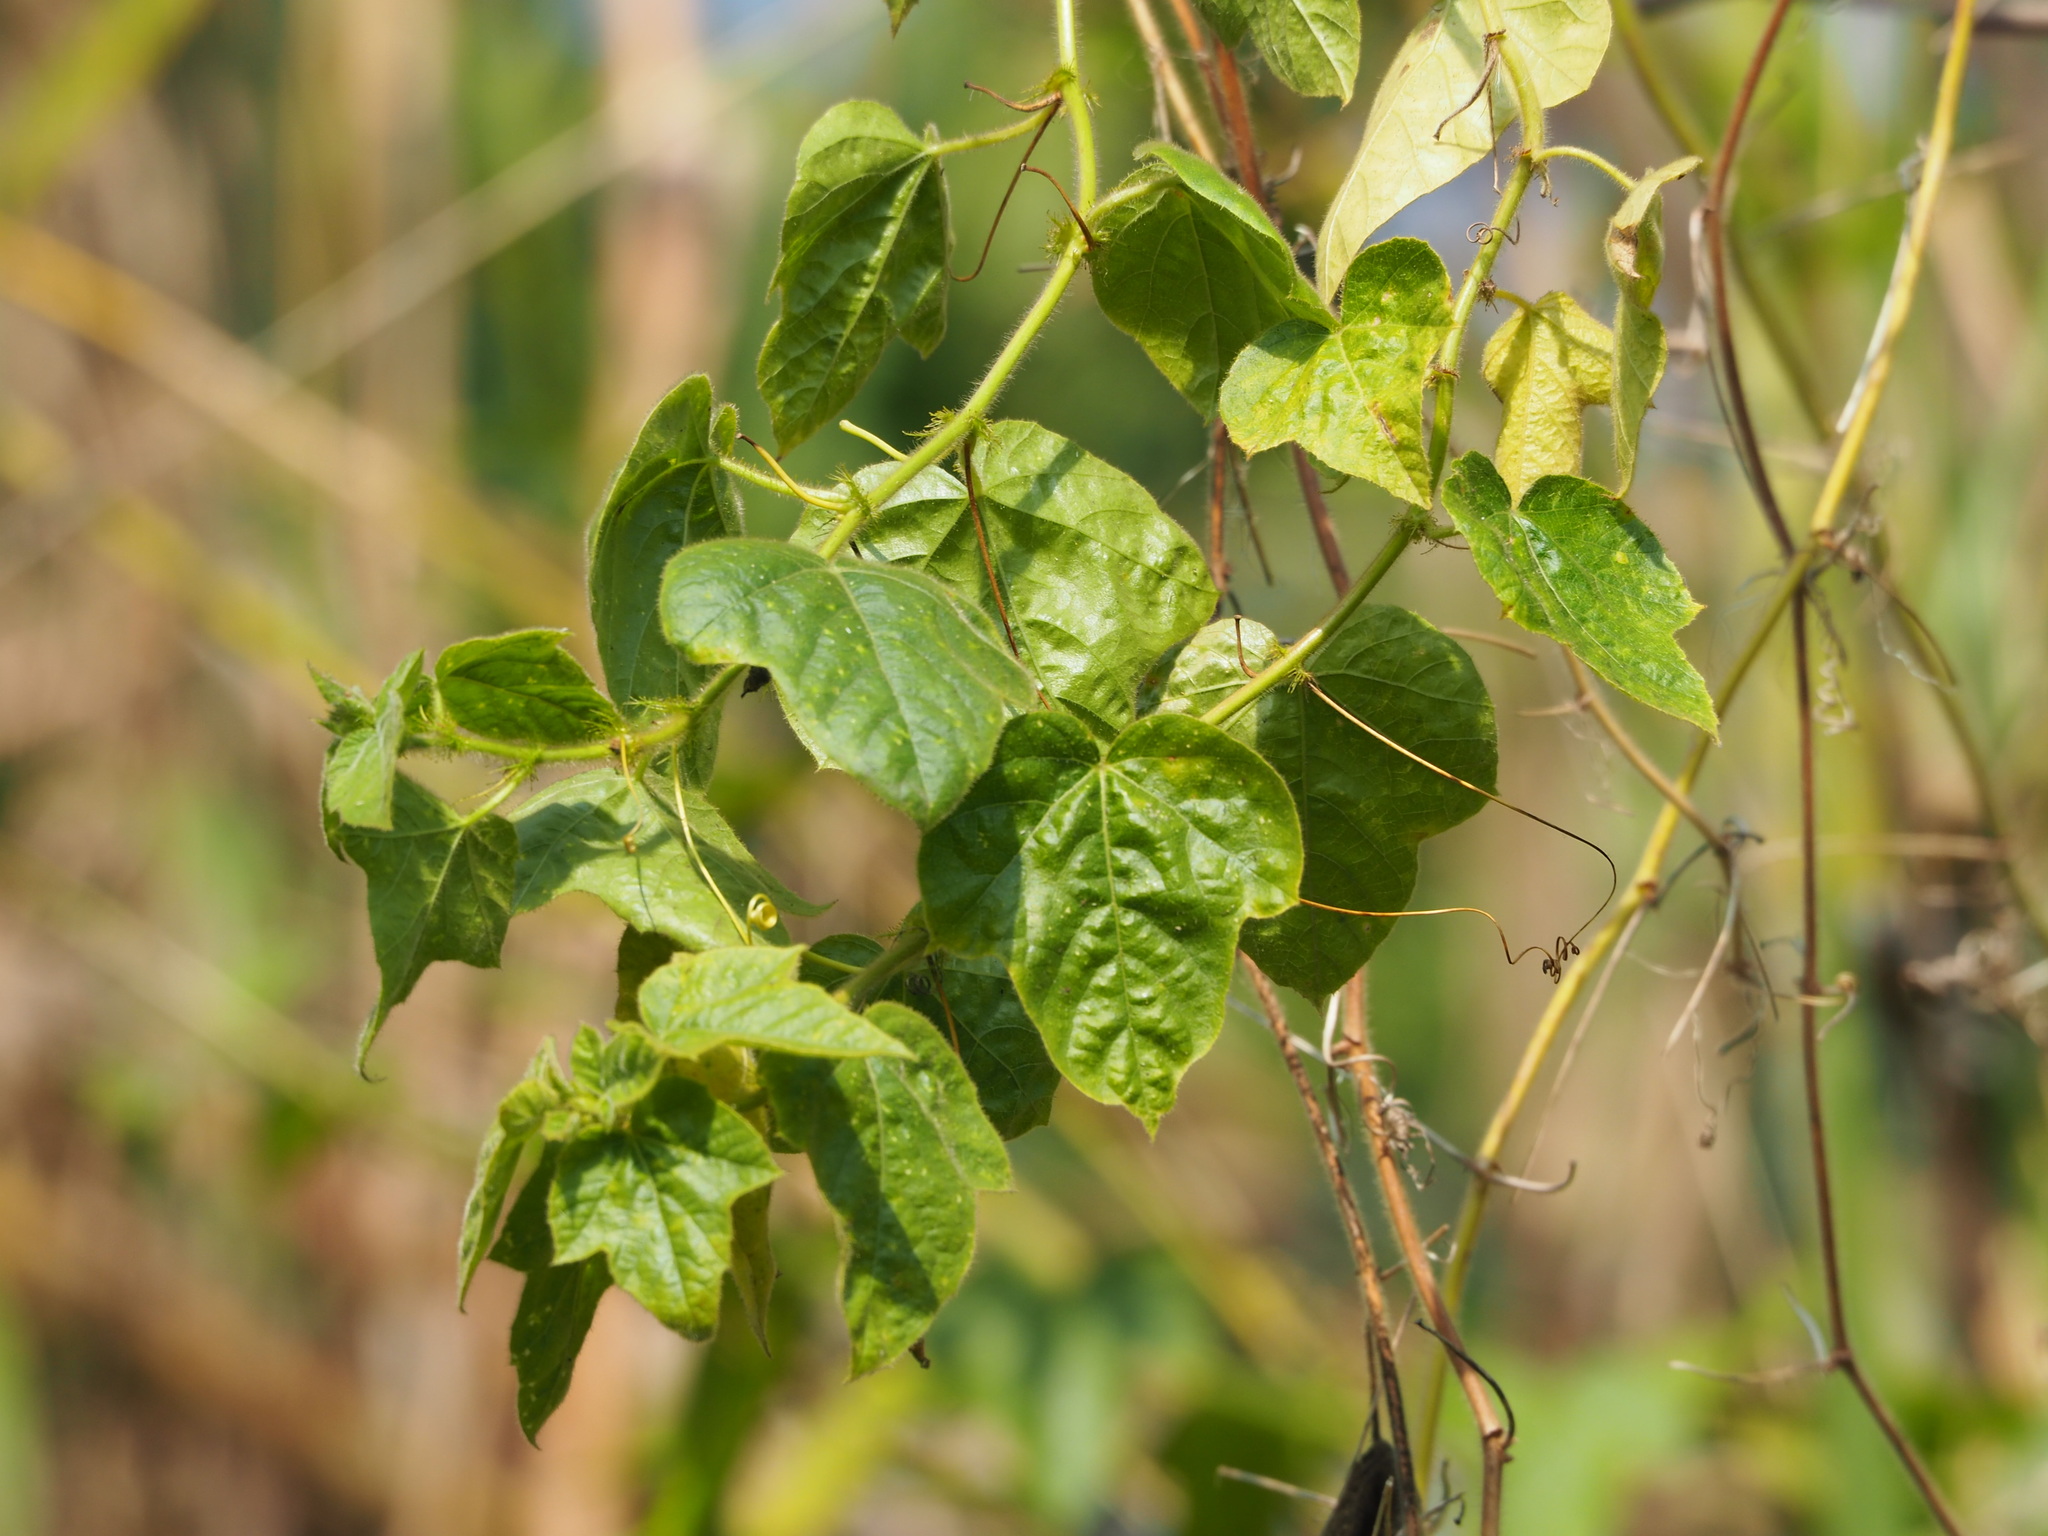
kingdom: Plantae
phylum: Tracheophyta
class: Magnoliopsida
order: Malpighiales
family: Passifloraceae
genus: Passiflora
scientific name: Passiflora vesicaria
